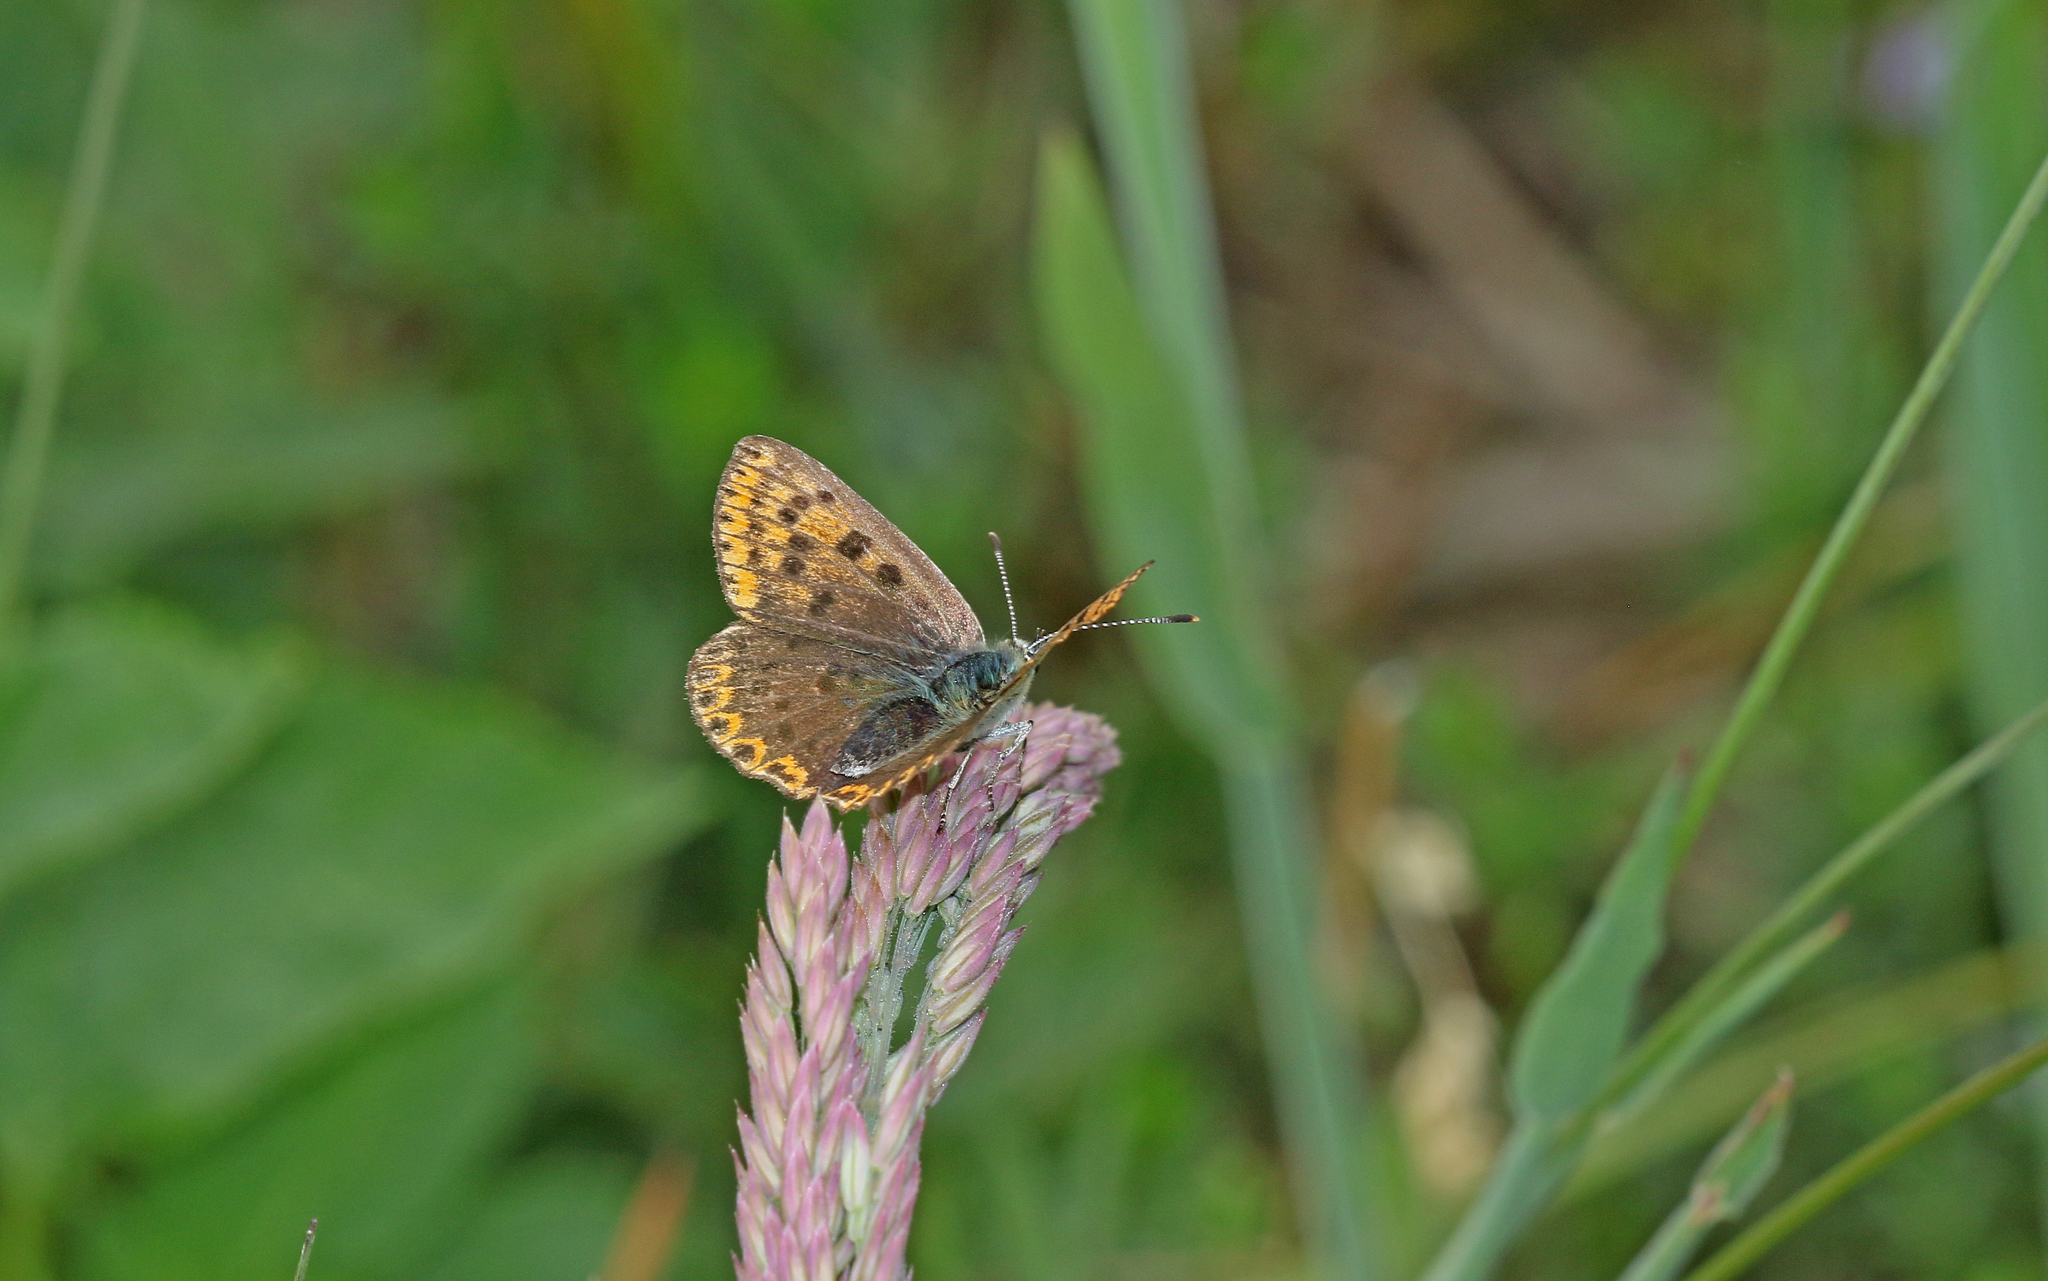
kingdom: Animalia
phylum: Arthropoda
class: Insecta
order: Lepidoptera
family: Lycaenidae
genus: Loweia
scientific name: Loweia tityrus
